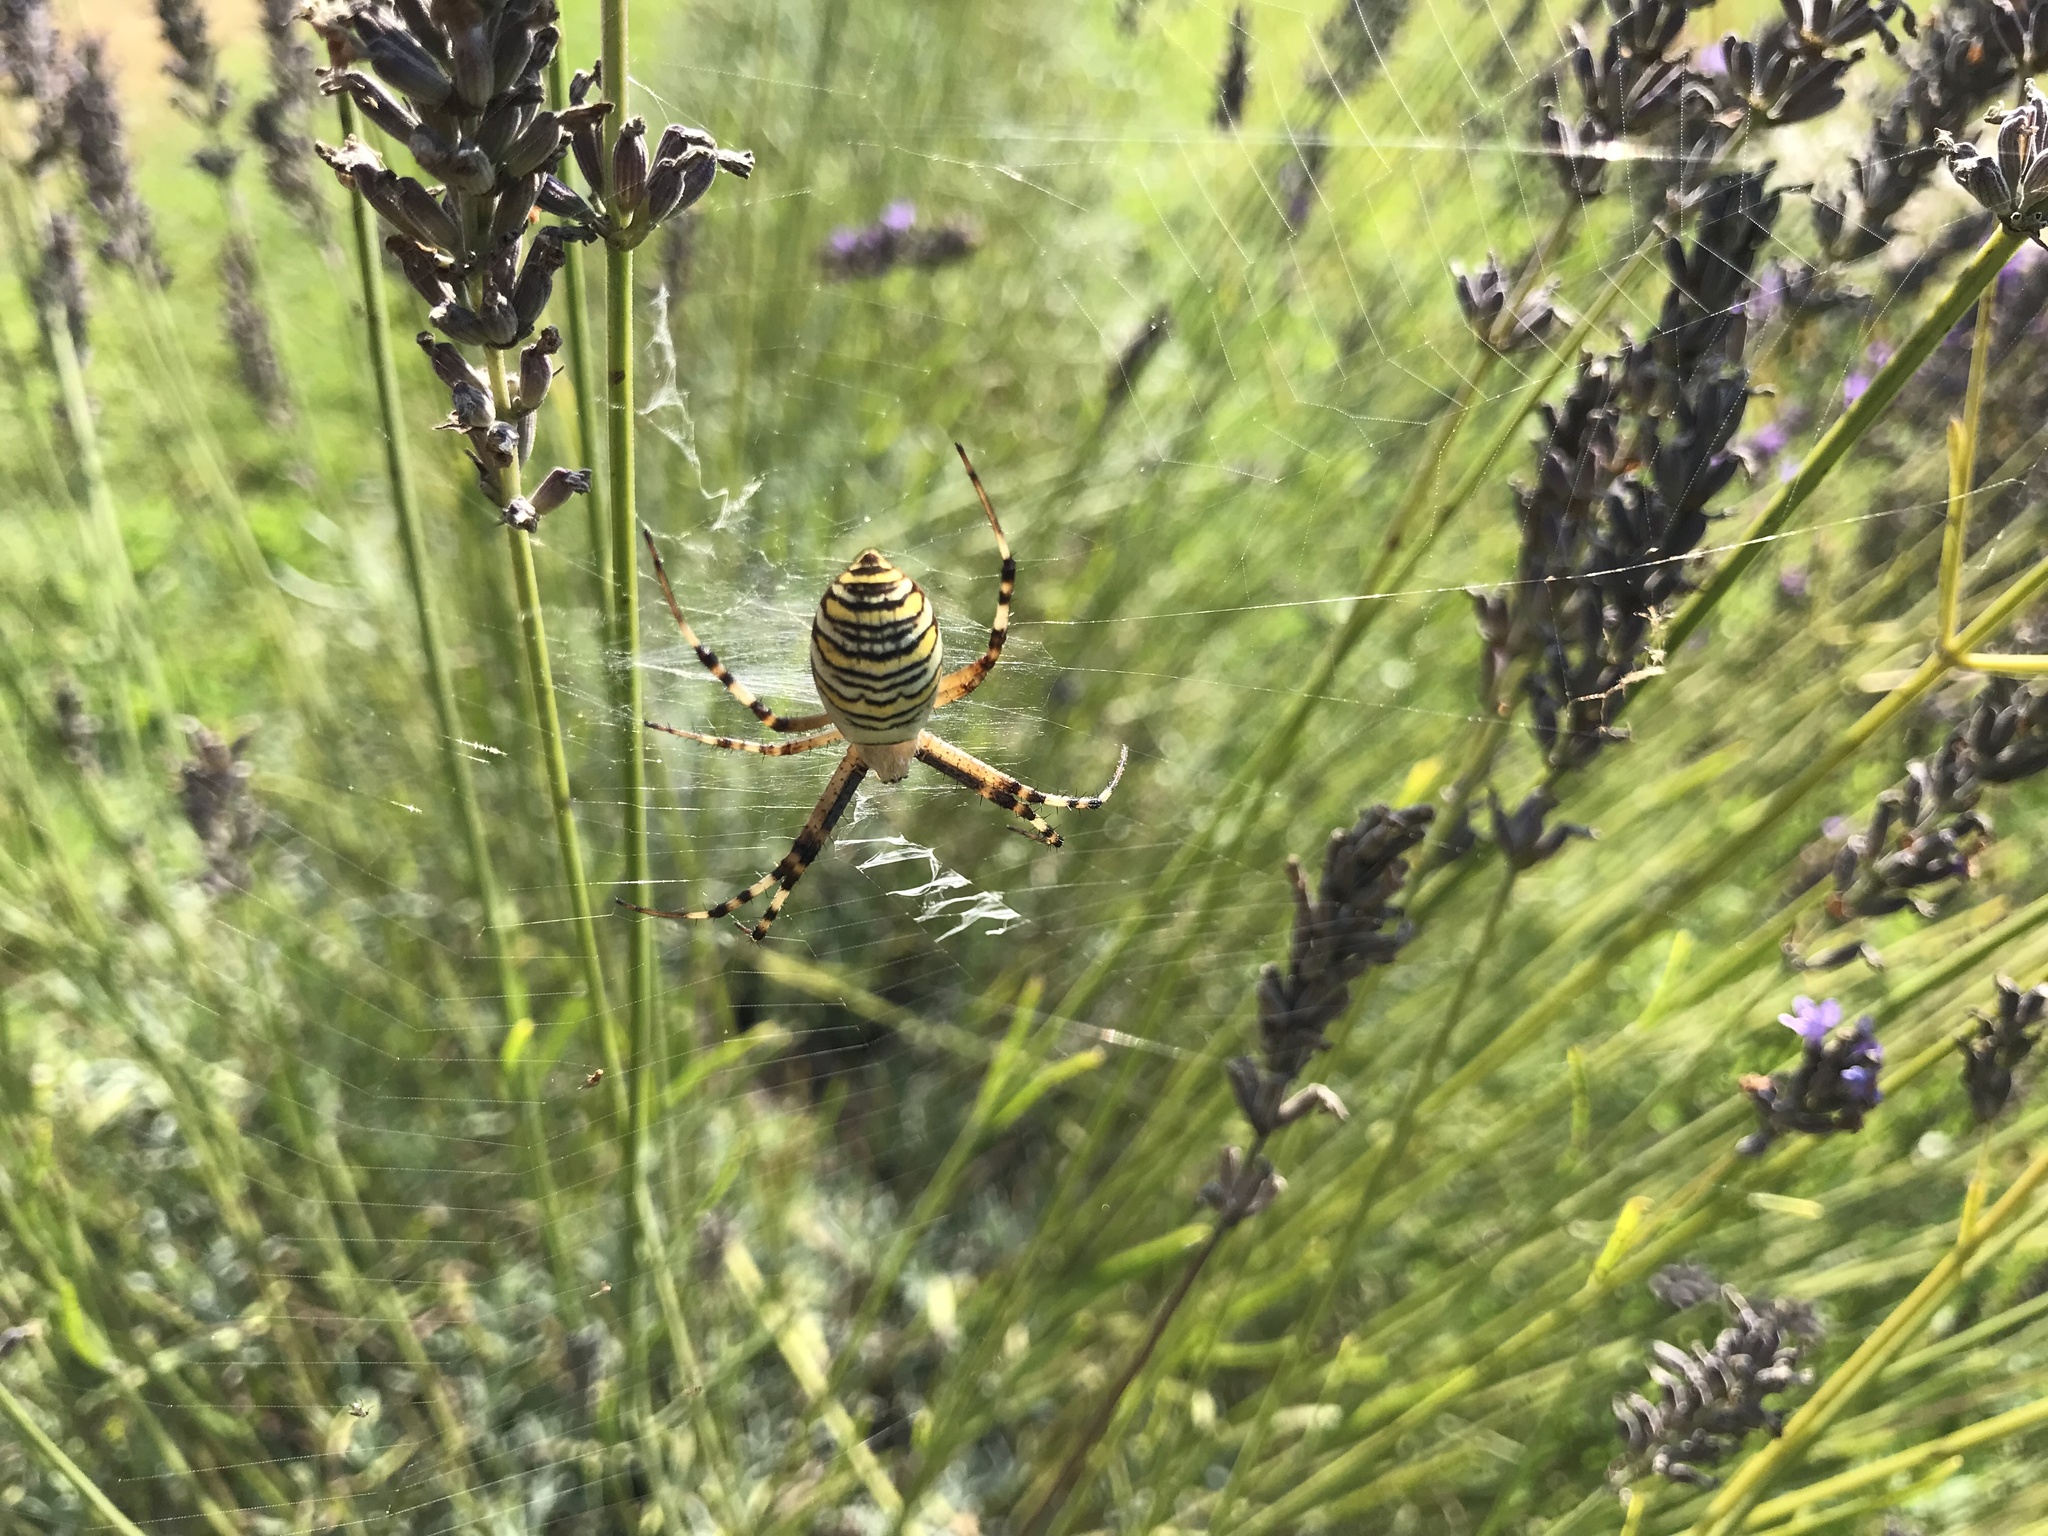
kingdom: Animalia
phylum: Arthropoda
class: Arachnida
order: Araneae
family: Araneidae
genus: Argiope
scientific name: Argiope bruennichi
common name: Wasp spider
